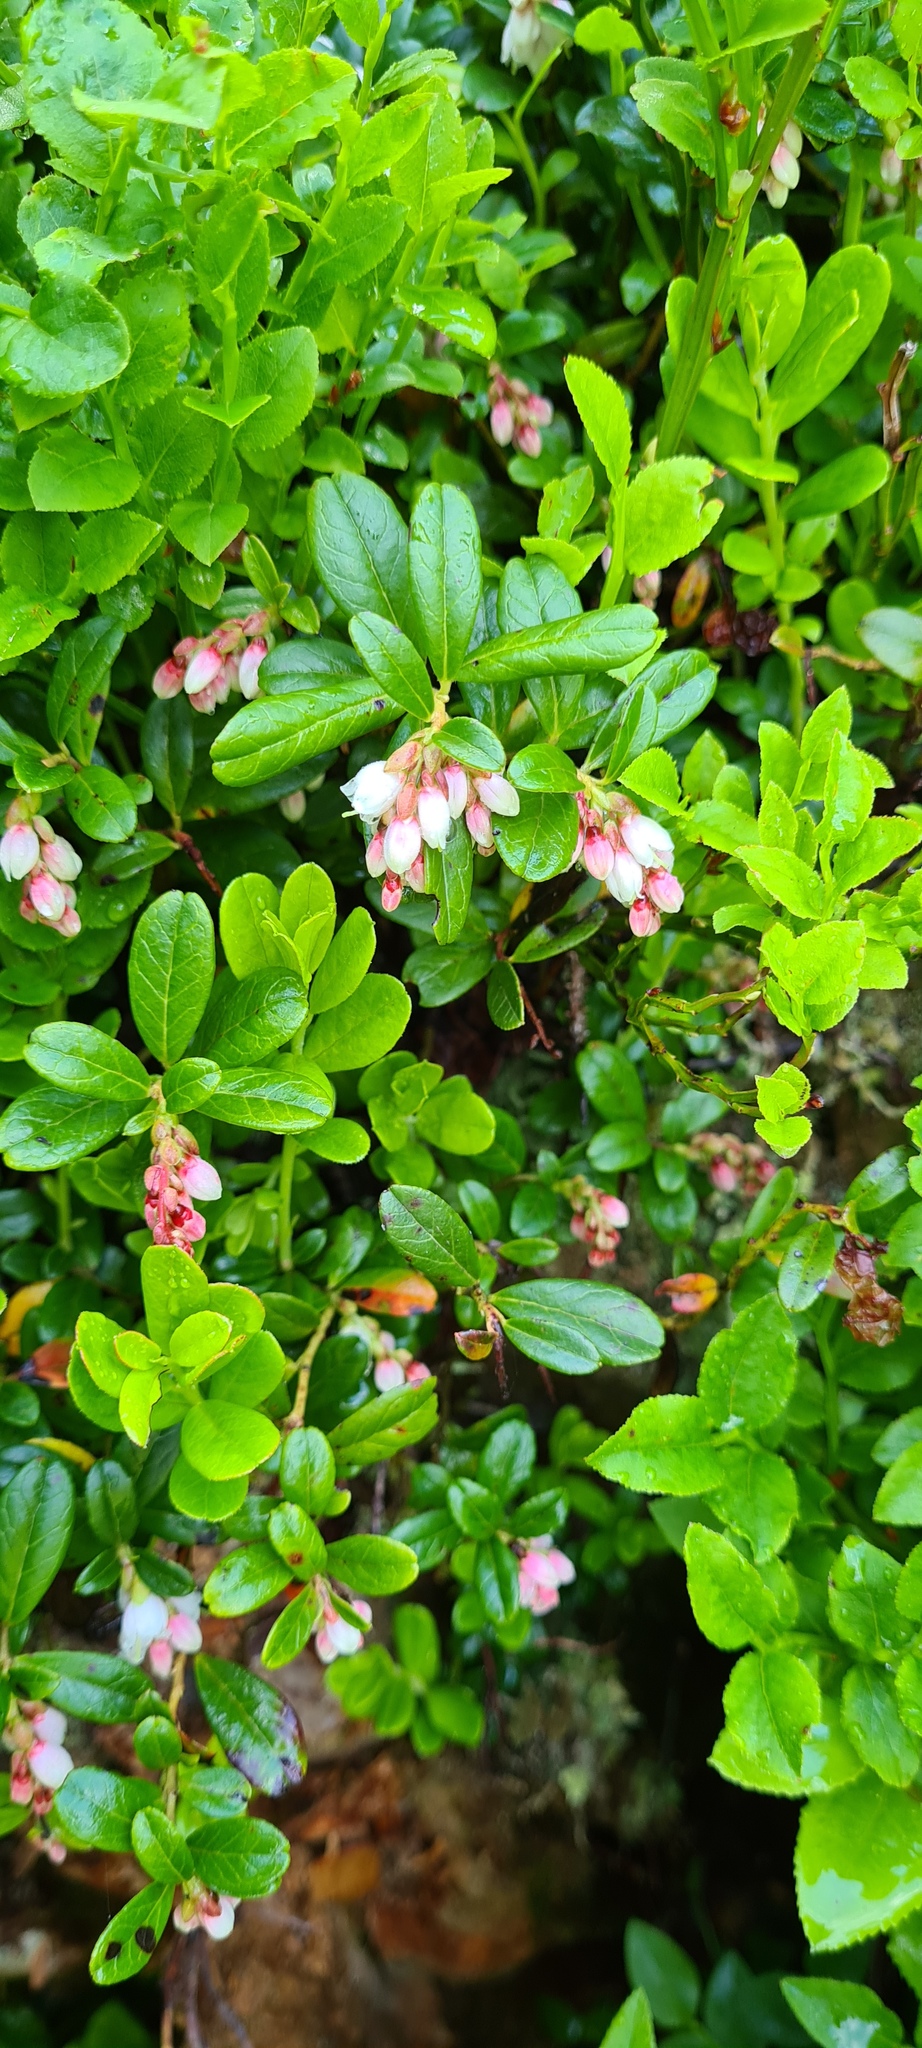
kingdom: Plantae
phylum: Tracheophyta
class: Magnoliopsida
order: Ericales
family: Ericaceae
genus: Vaccinium
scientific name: Vaccinium vitis-idaea
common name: Cowberry
